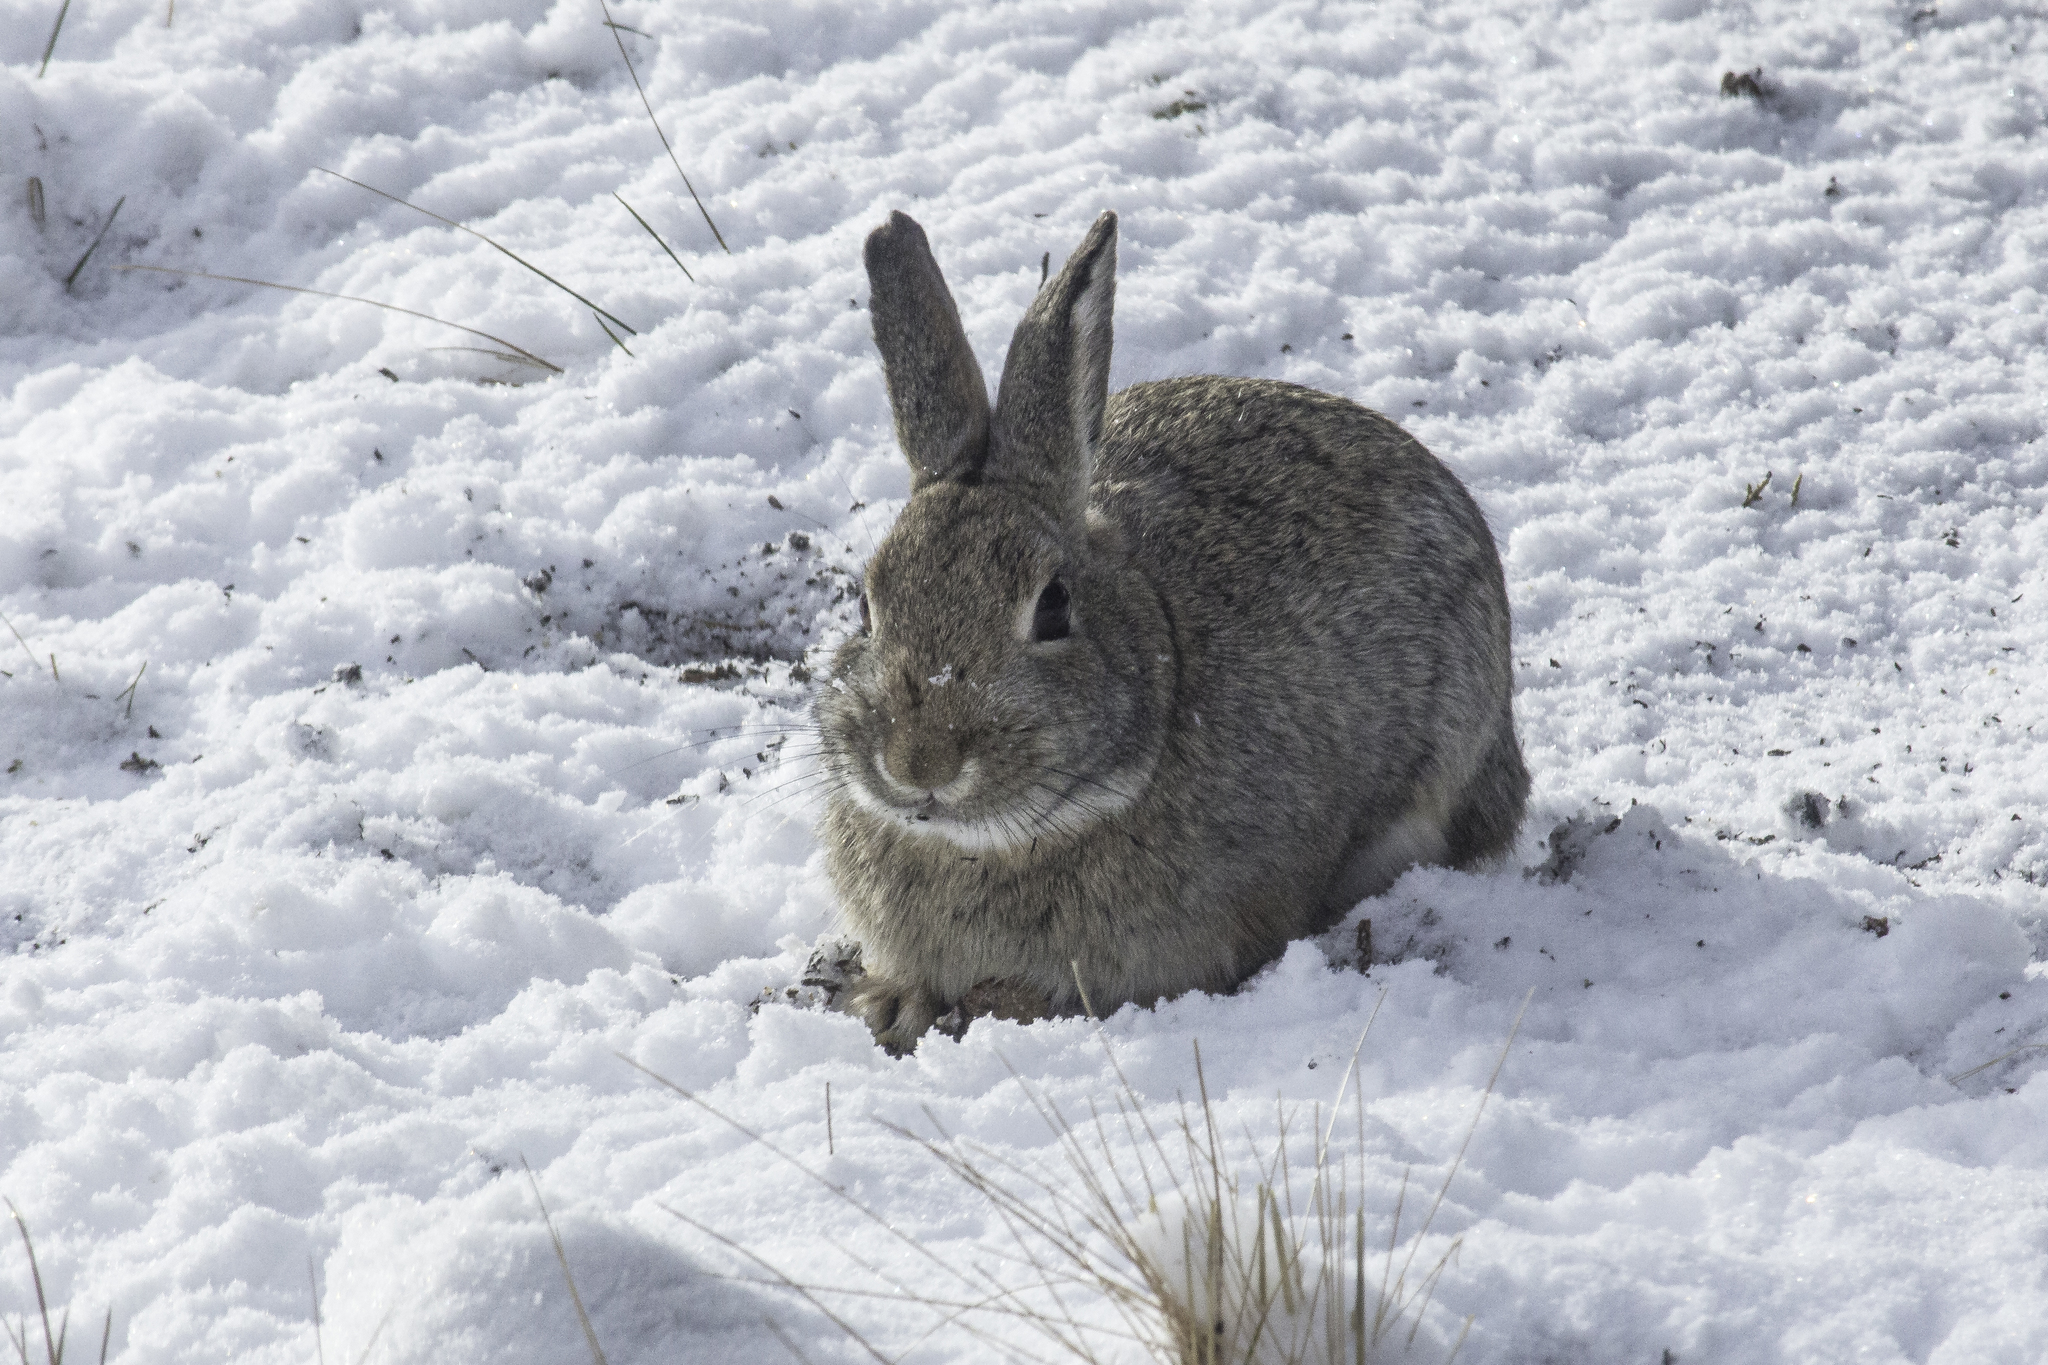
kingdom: Animalia
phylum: Chordata
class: Mammalia
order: Lagomorpha
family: Leporidae
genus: Sylvilagus
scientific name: Sylvilagus nuttallii
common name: Mountain cottontail
